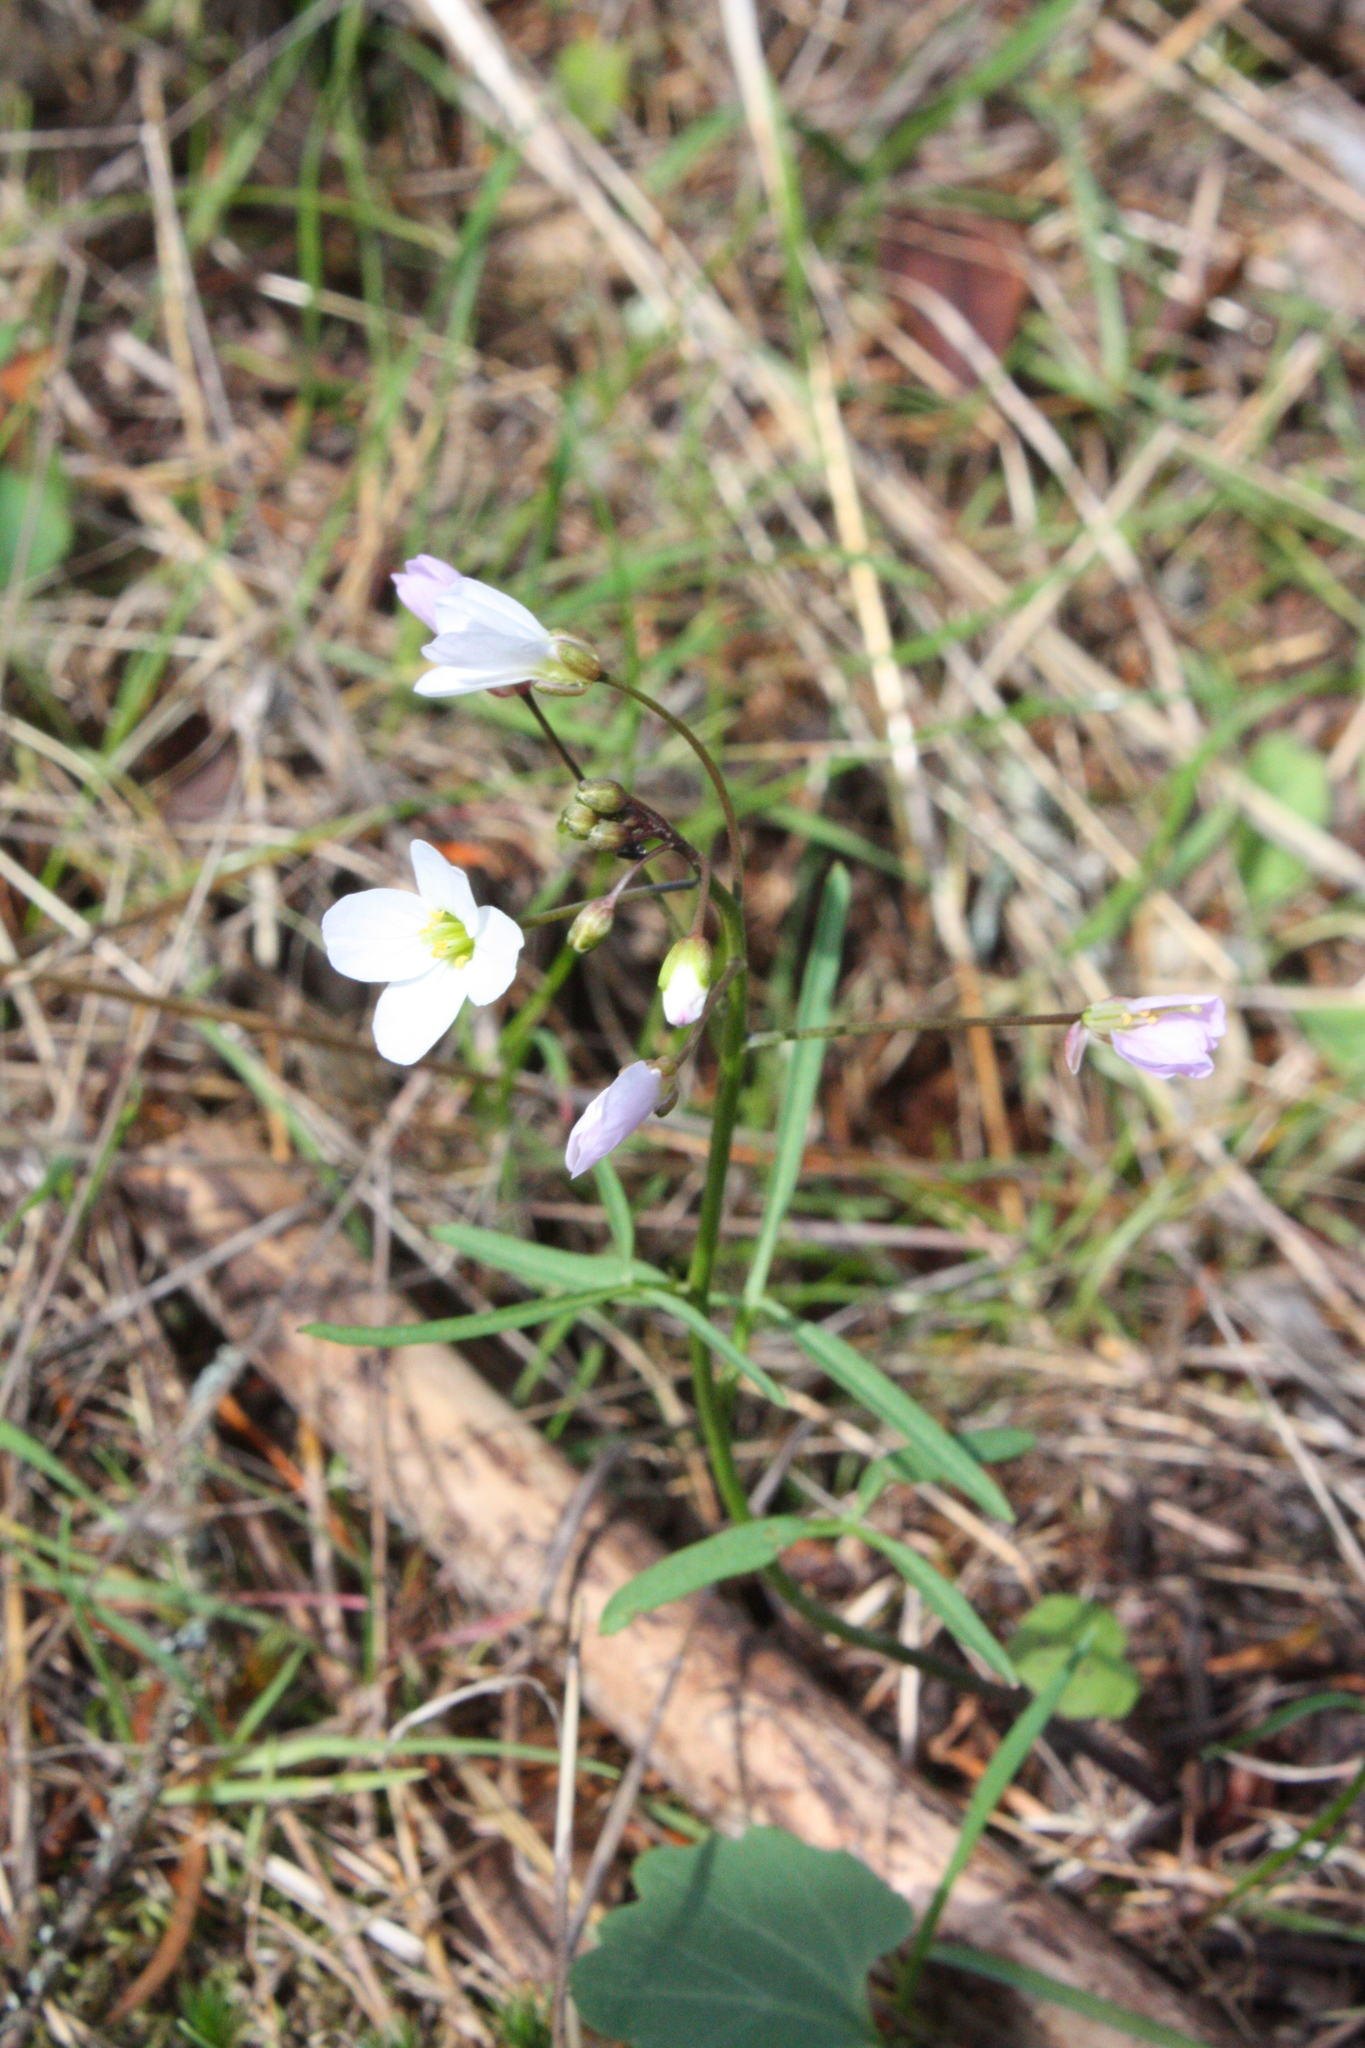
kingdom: Plantae
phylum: Tracheophyta
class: Magnoliopsida
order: Brassicales
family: Brassicaceae
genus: Cardamine
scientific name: Cardamine californica
